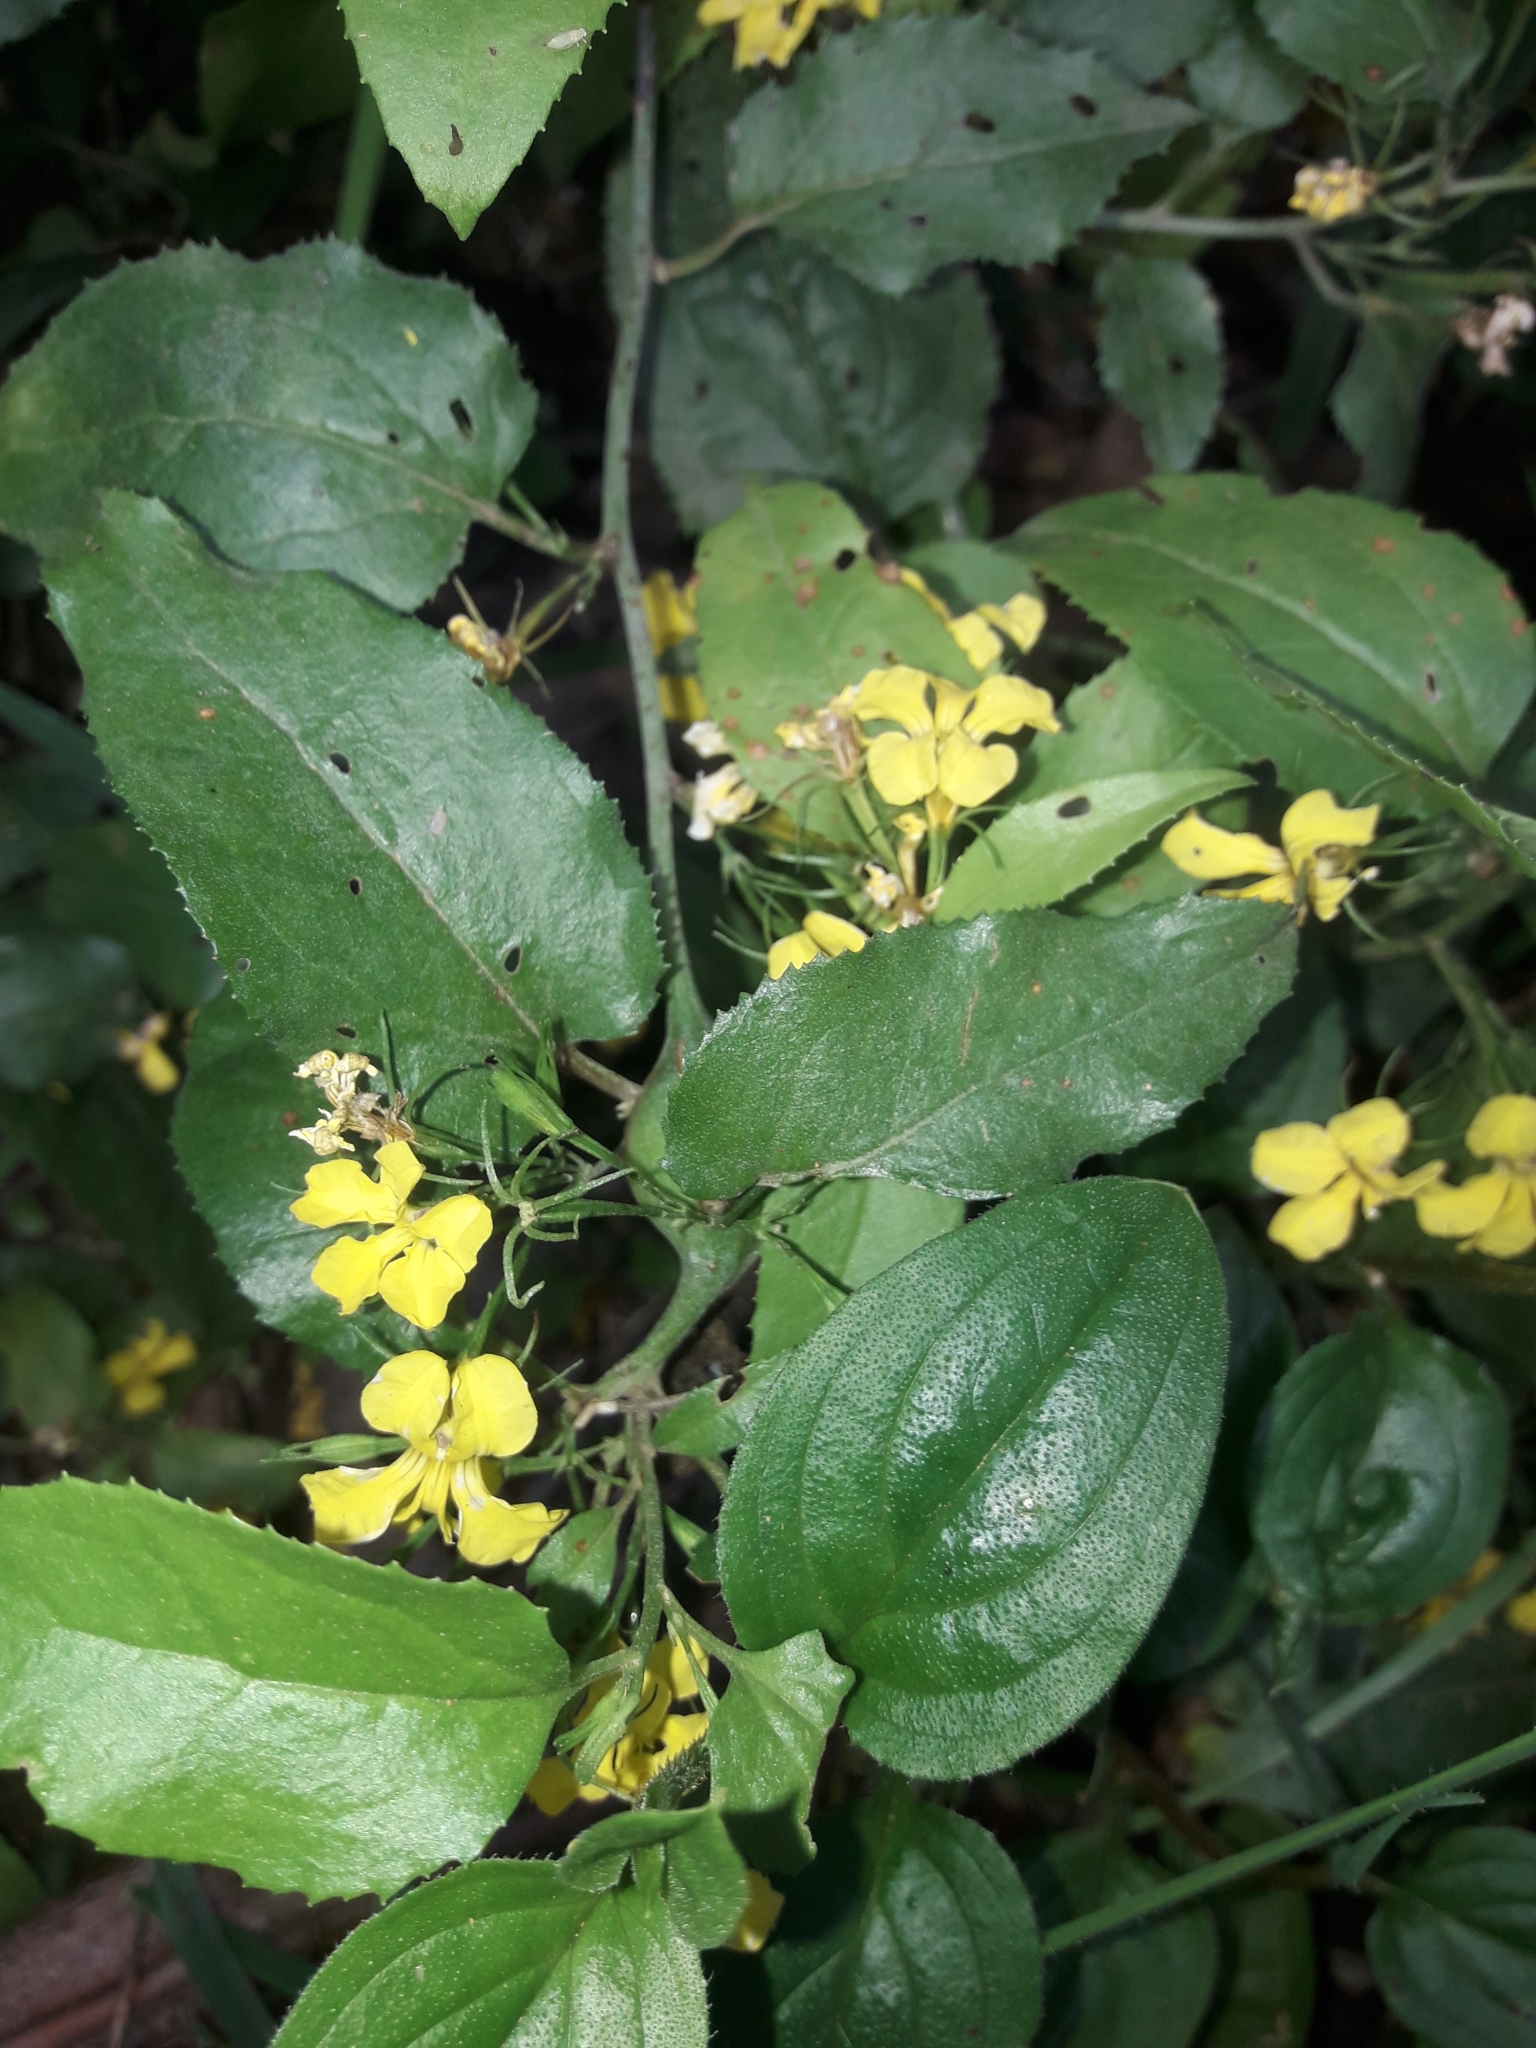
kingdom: Plantae
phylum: Tracheophyta
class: Magnoliopsida
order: Asterales
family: Goodeniaceae
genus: Goodenia
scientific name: Goodenia ovata
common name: Hop goodenia
